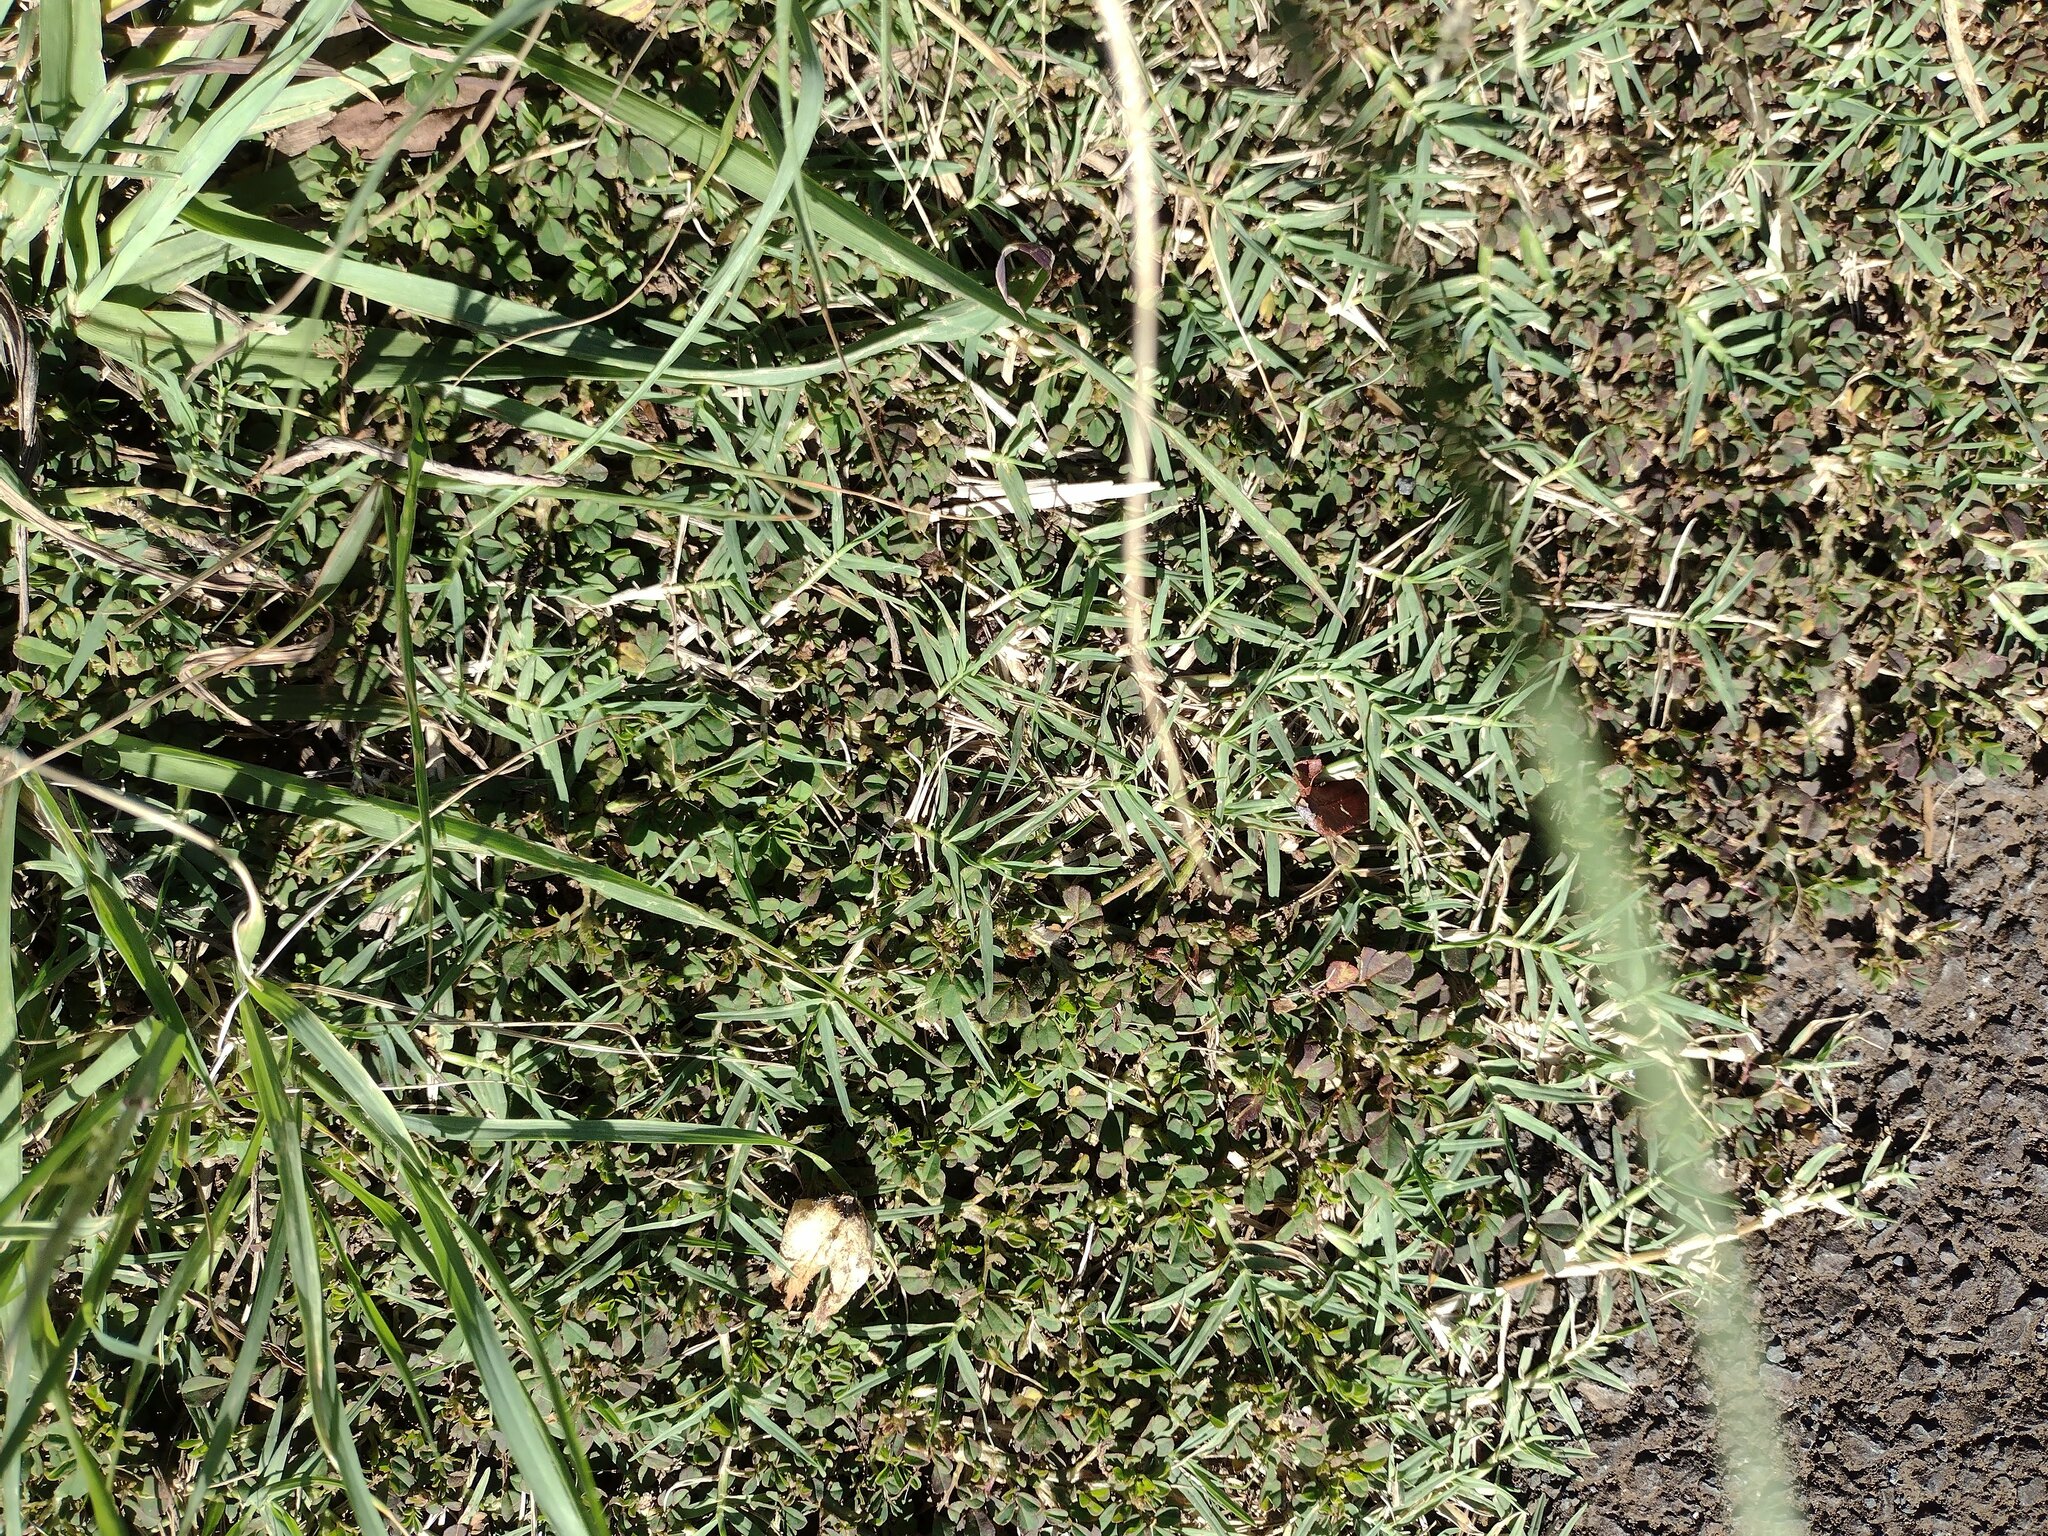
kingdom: Plantae
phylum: Tracheophyta
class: Liliopsida
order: Poales
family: Poaceae
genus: Cynodon
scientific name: Cynodon dactylon
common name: Bermuda grass
